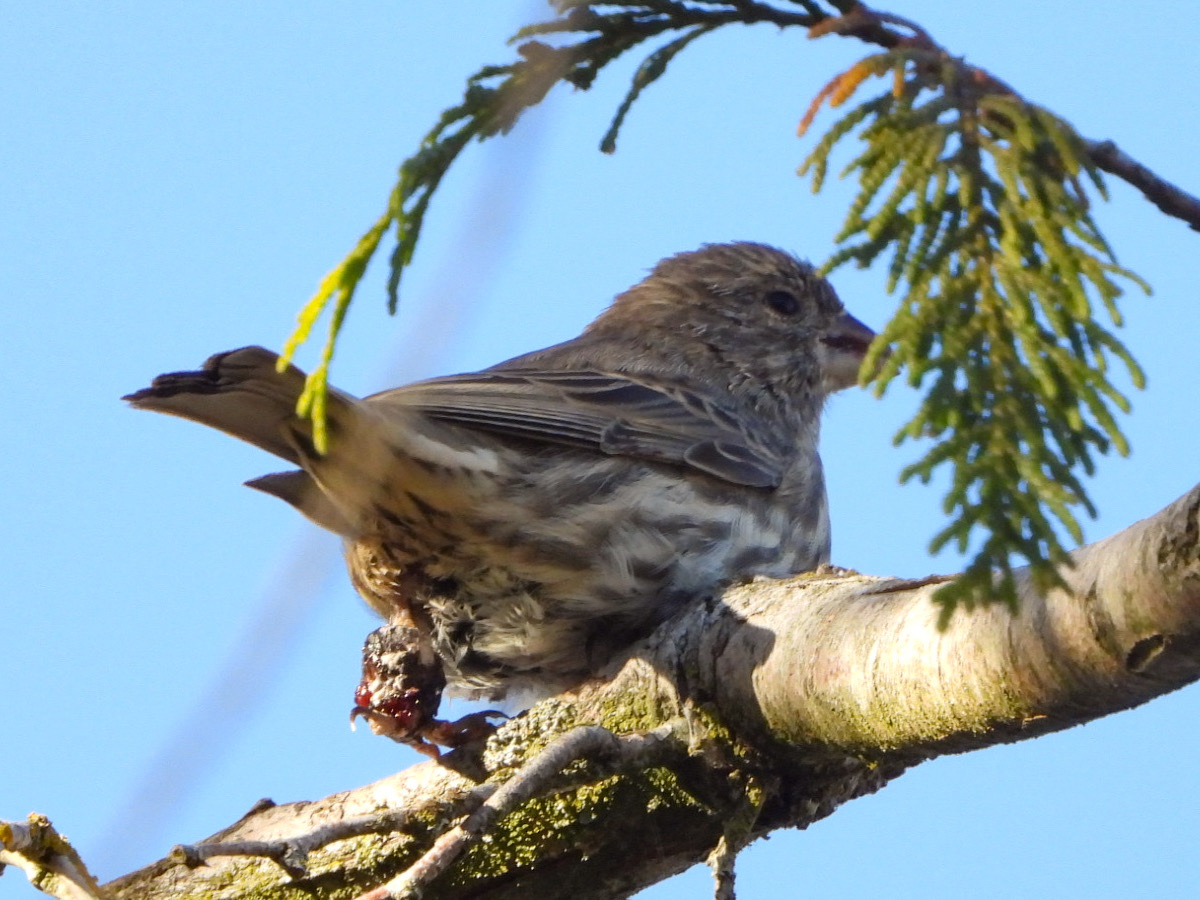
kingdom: Animalia
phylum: Chordata
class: Aves
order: Passeriformes
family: Fringillidae
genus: Haemorhous
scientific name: Haemorhous mexicanus
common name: House finch
